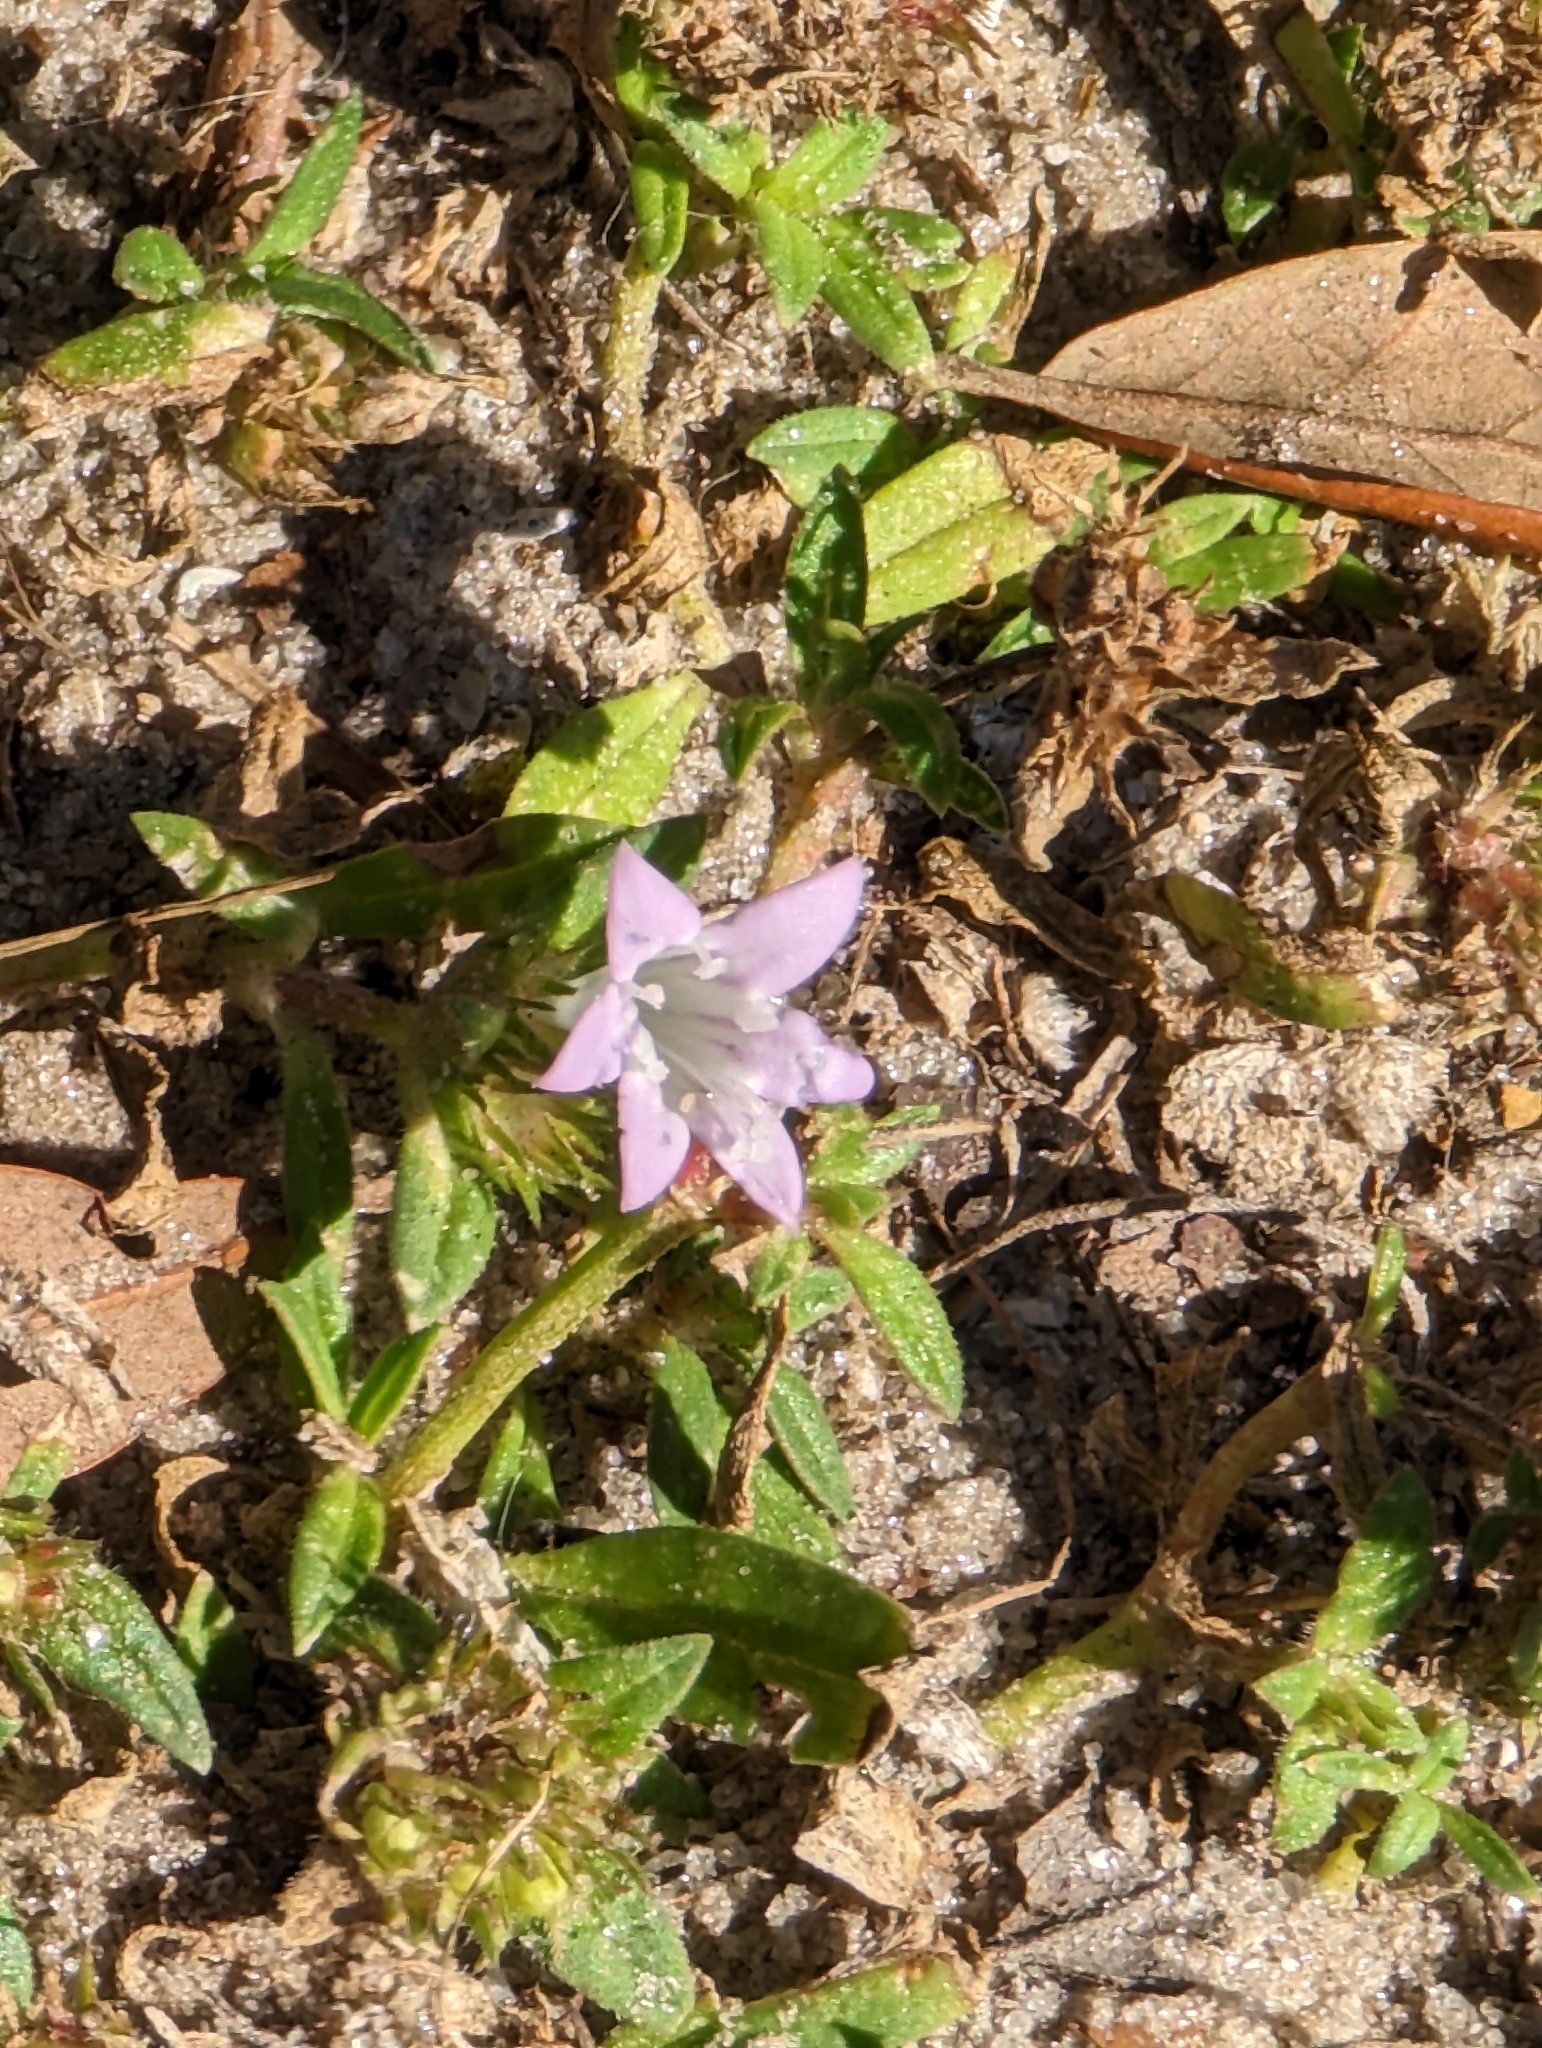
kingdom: Plantae
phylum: Tracheophyta
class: Magnoliopsida
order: Gentianales
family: Rubiaceae
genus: Richardia
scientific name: Richardia grandiflora
